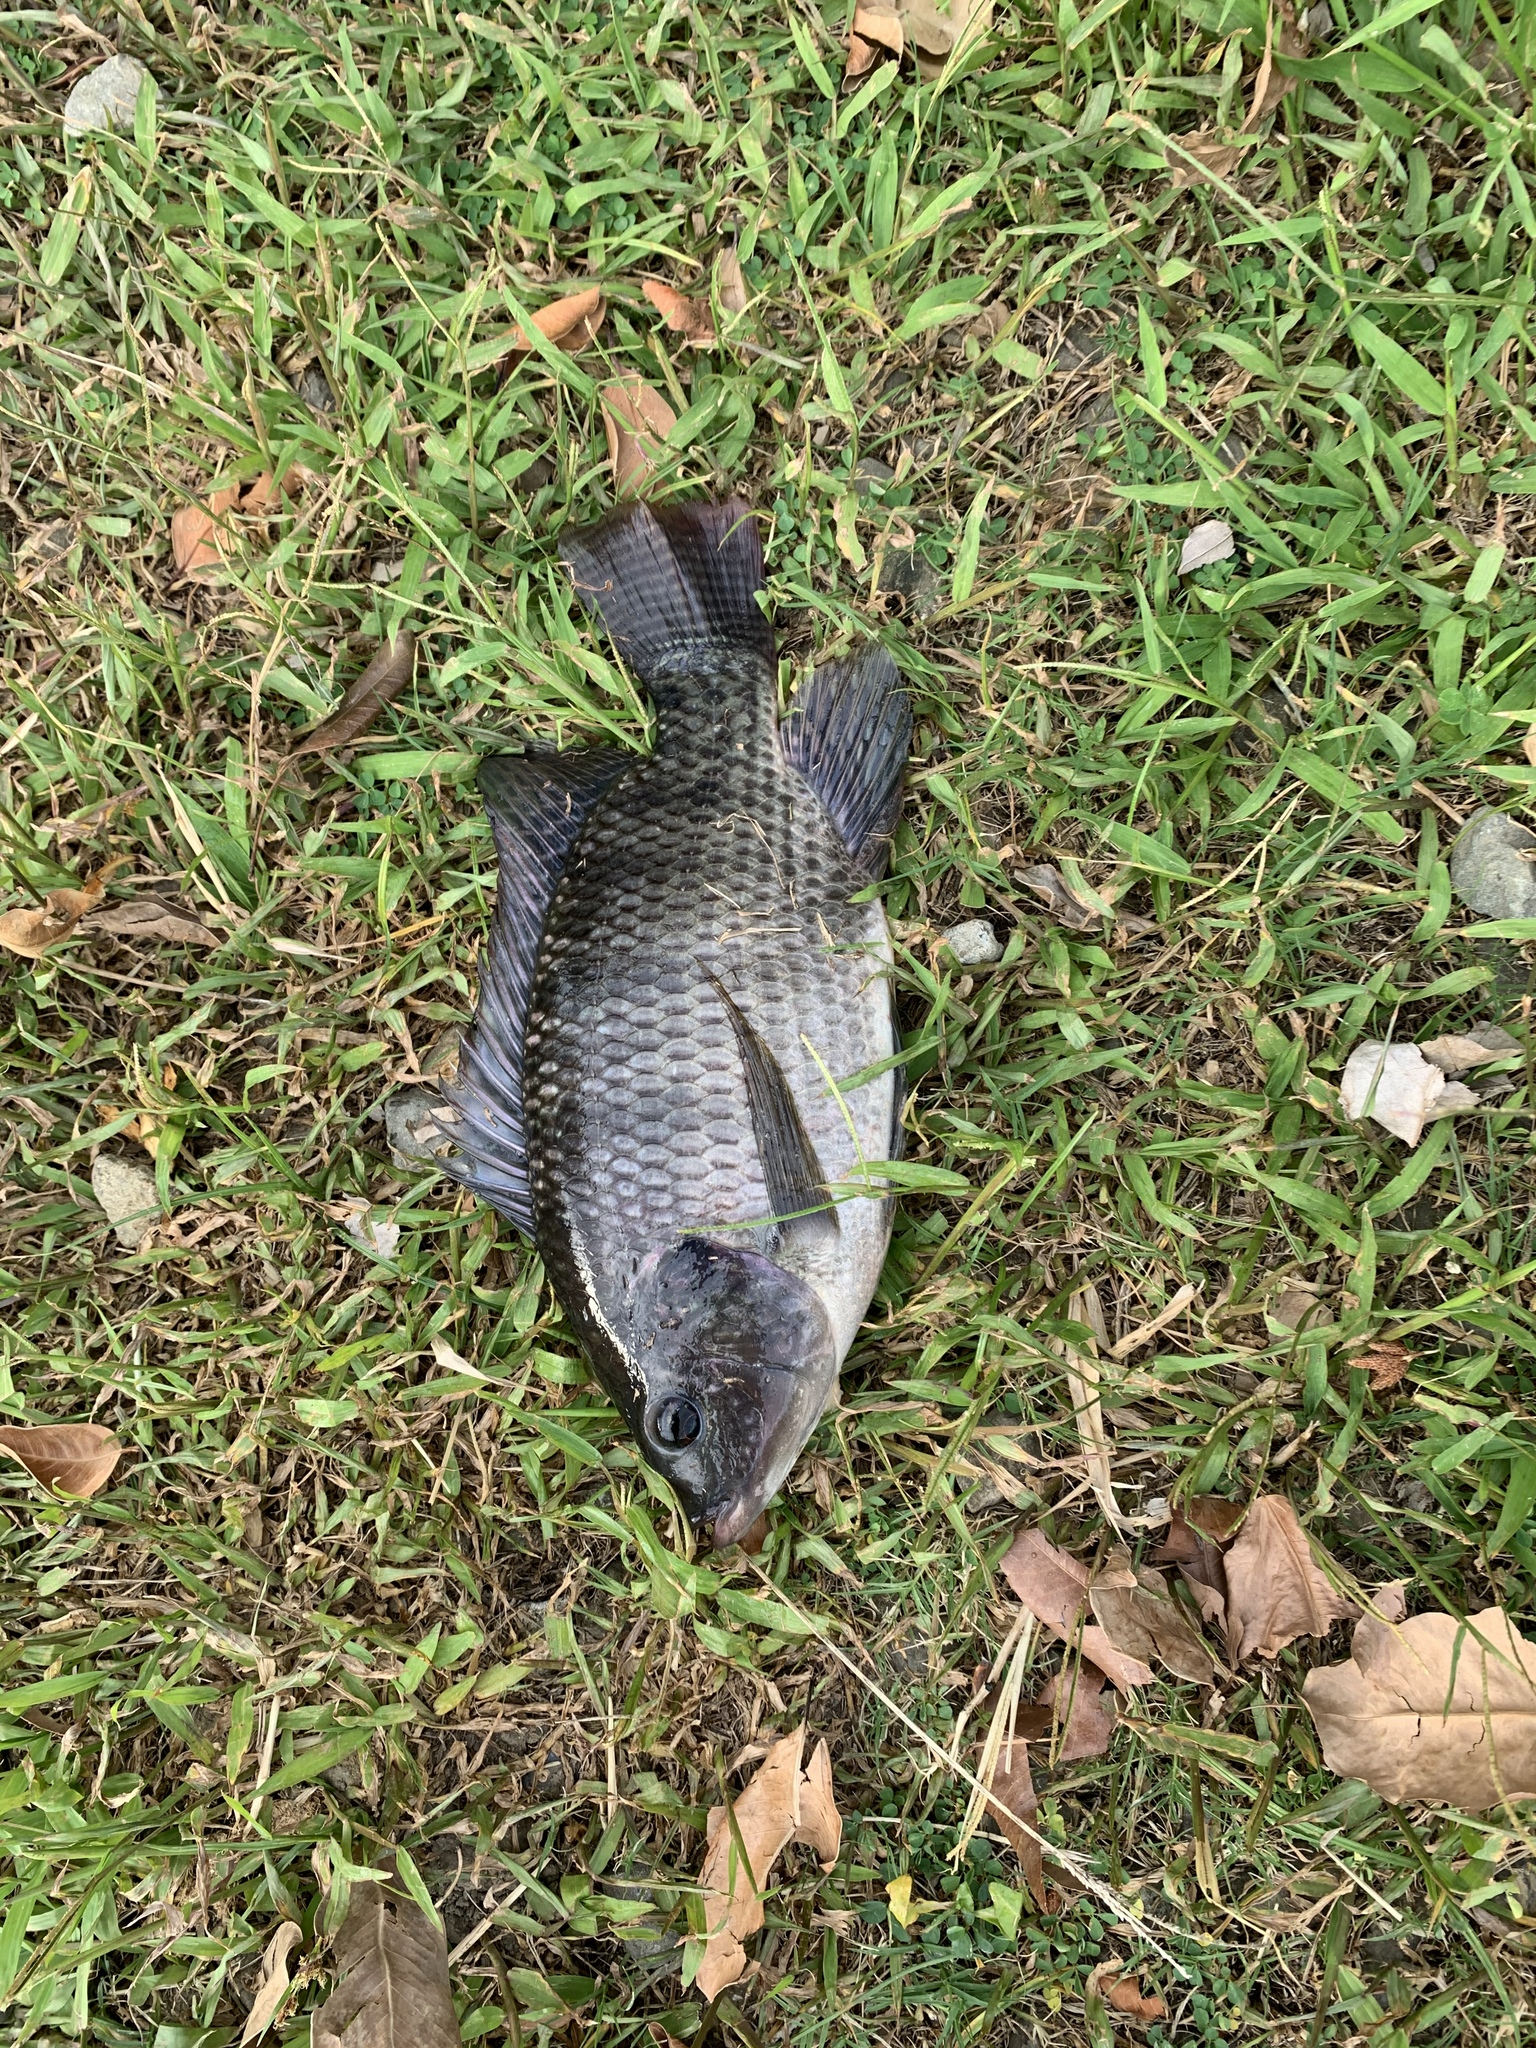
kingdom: Animalia
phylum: Chordata
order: Perciformes
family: Cichlidae
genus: Oreochromis
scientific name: Oreochromis mossambicus
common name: Mozambique tilapia
